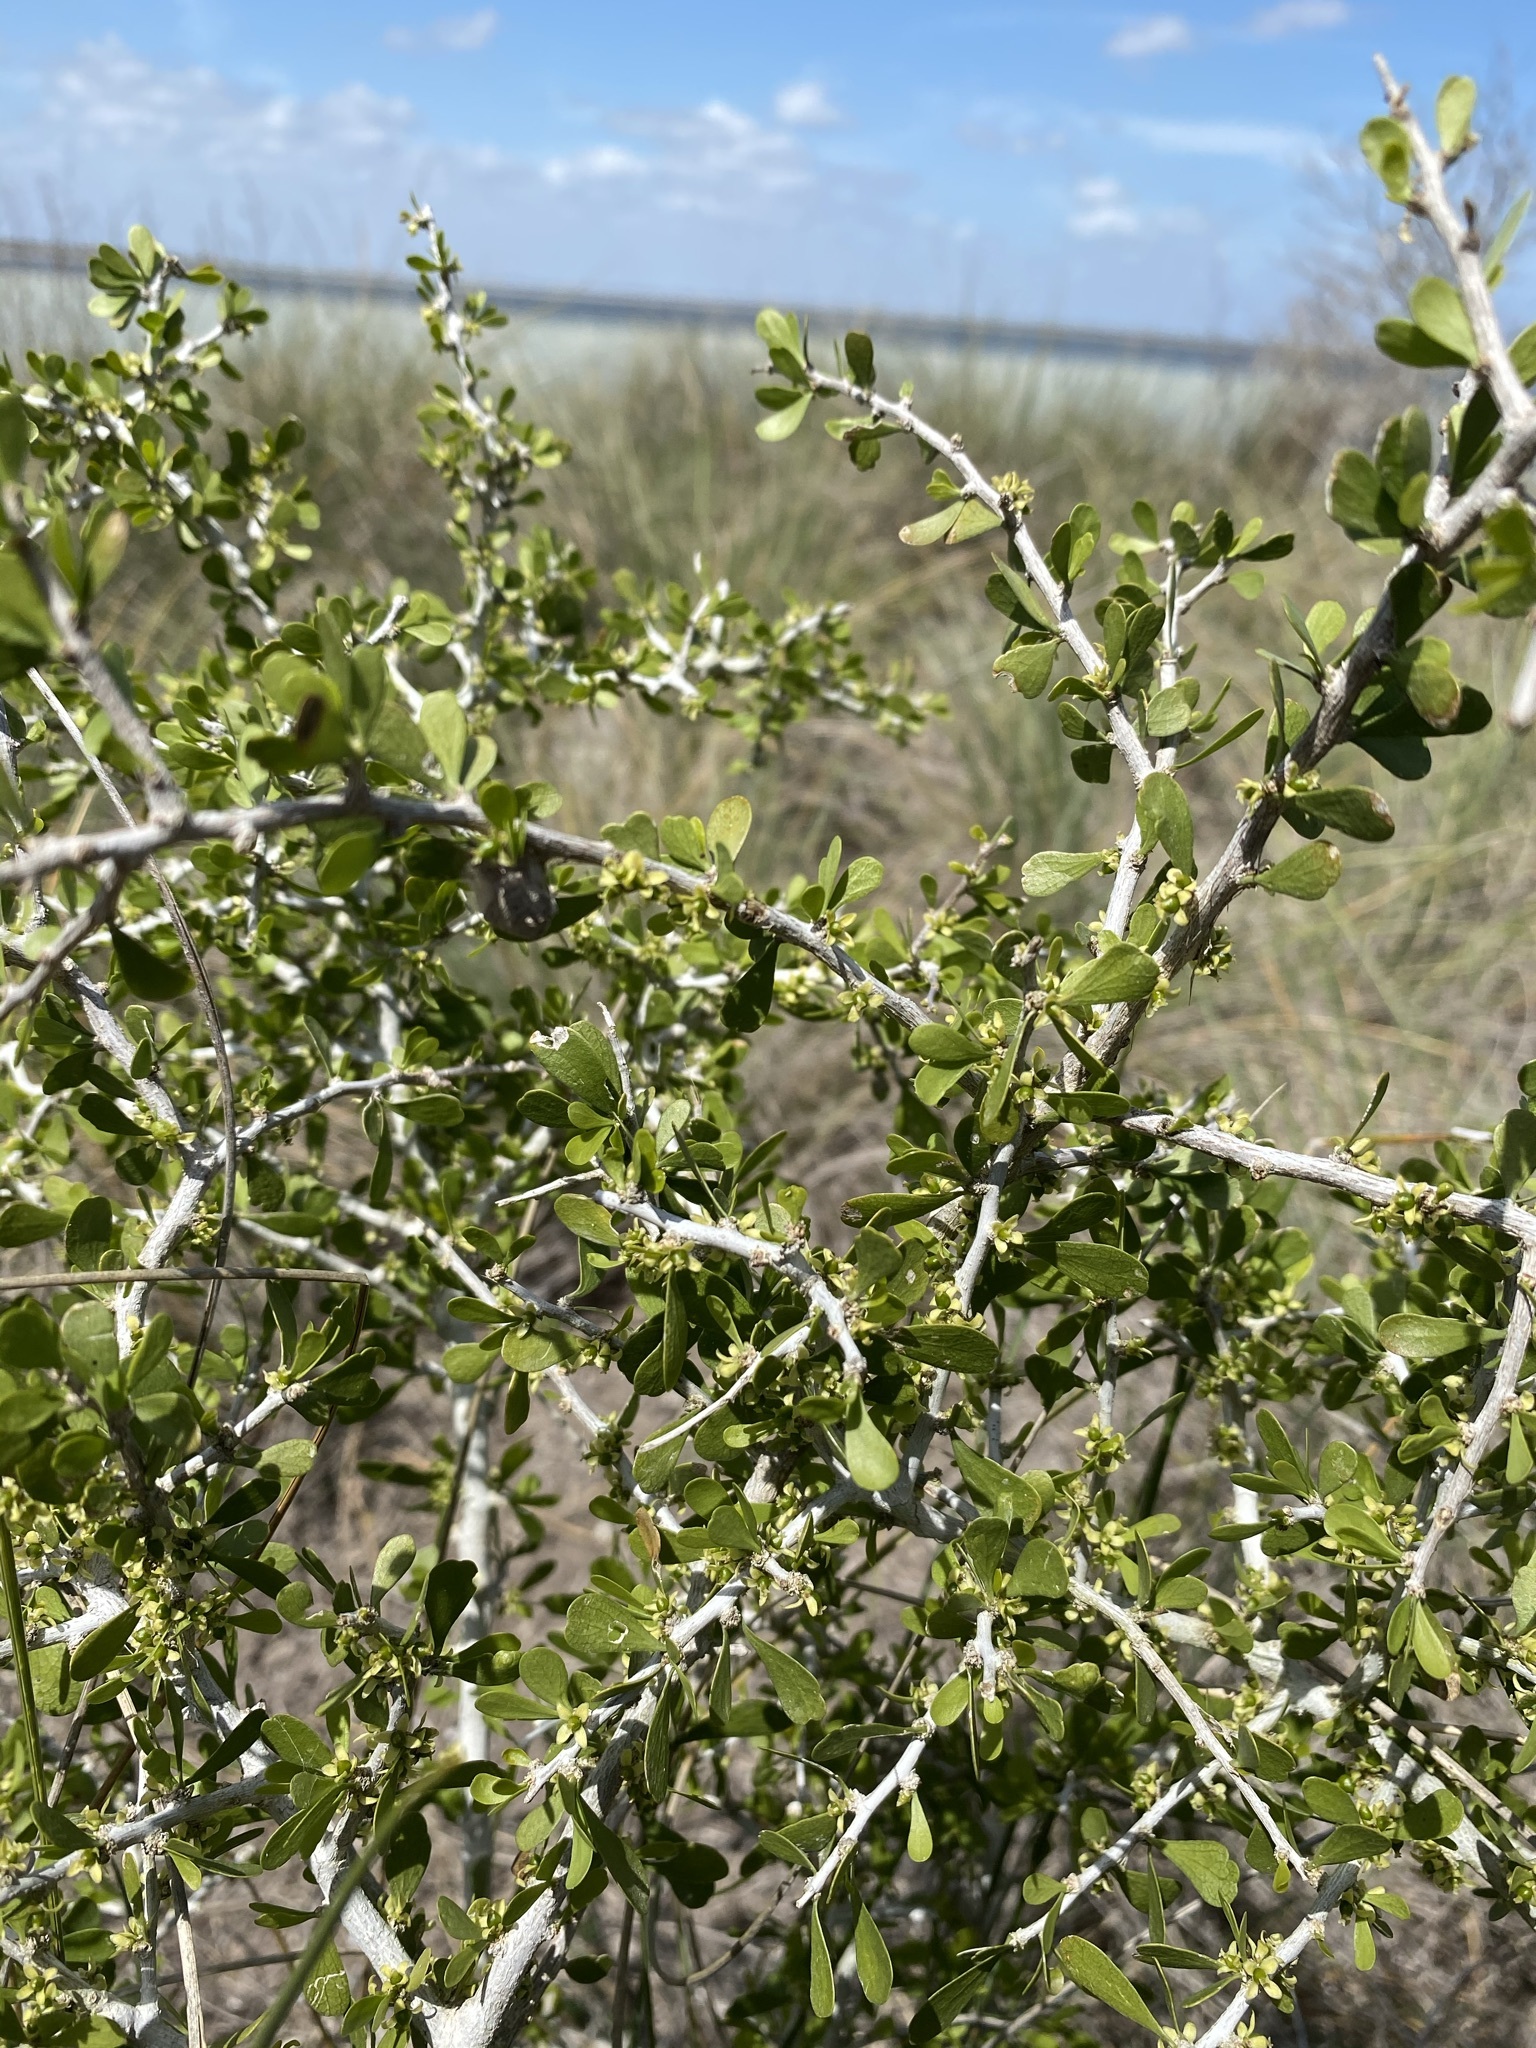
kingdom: Plantae
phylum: Tracheophyta
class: Magnoliopsida
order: Celastrales
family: Celastraceae
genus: Schaefferia
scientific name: Schaefferia cuneifolia
